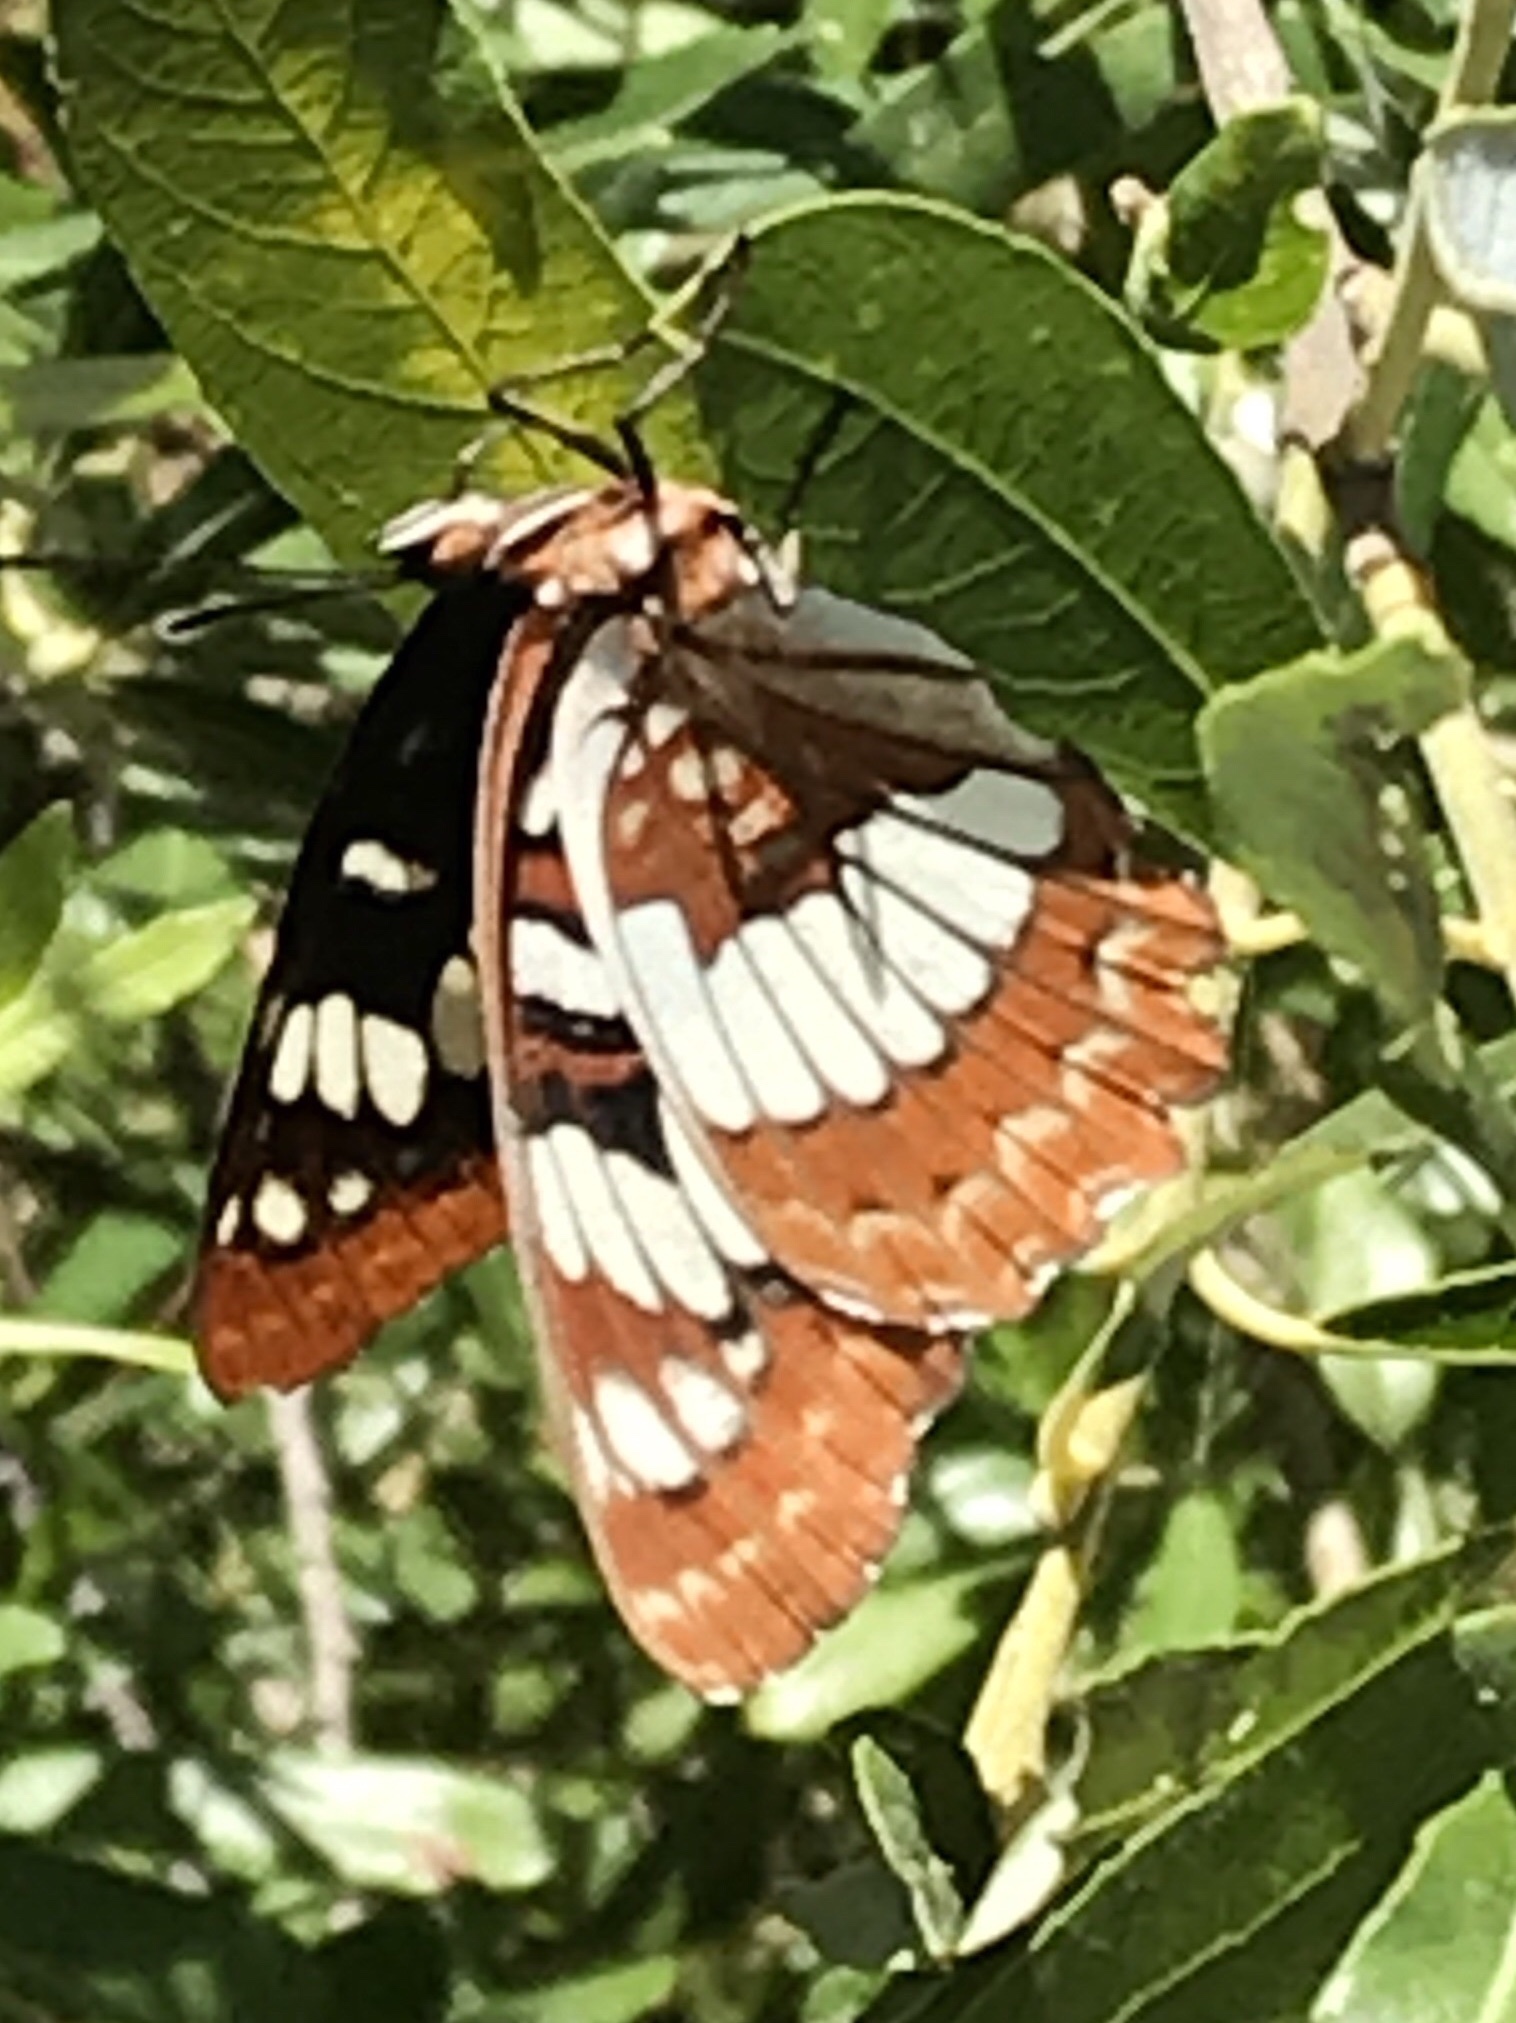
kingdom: Animalia
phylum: Arthropoda
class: Insecta
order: Lepidoptera
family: Nymphalidae
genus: Limenitis
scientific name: Limenitis lorquini
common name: Lorquin's admiral
